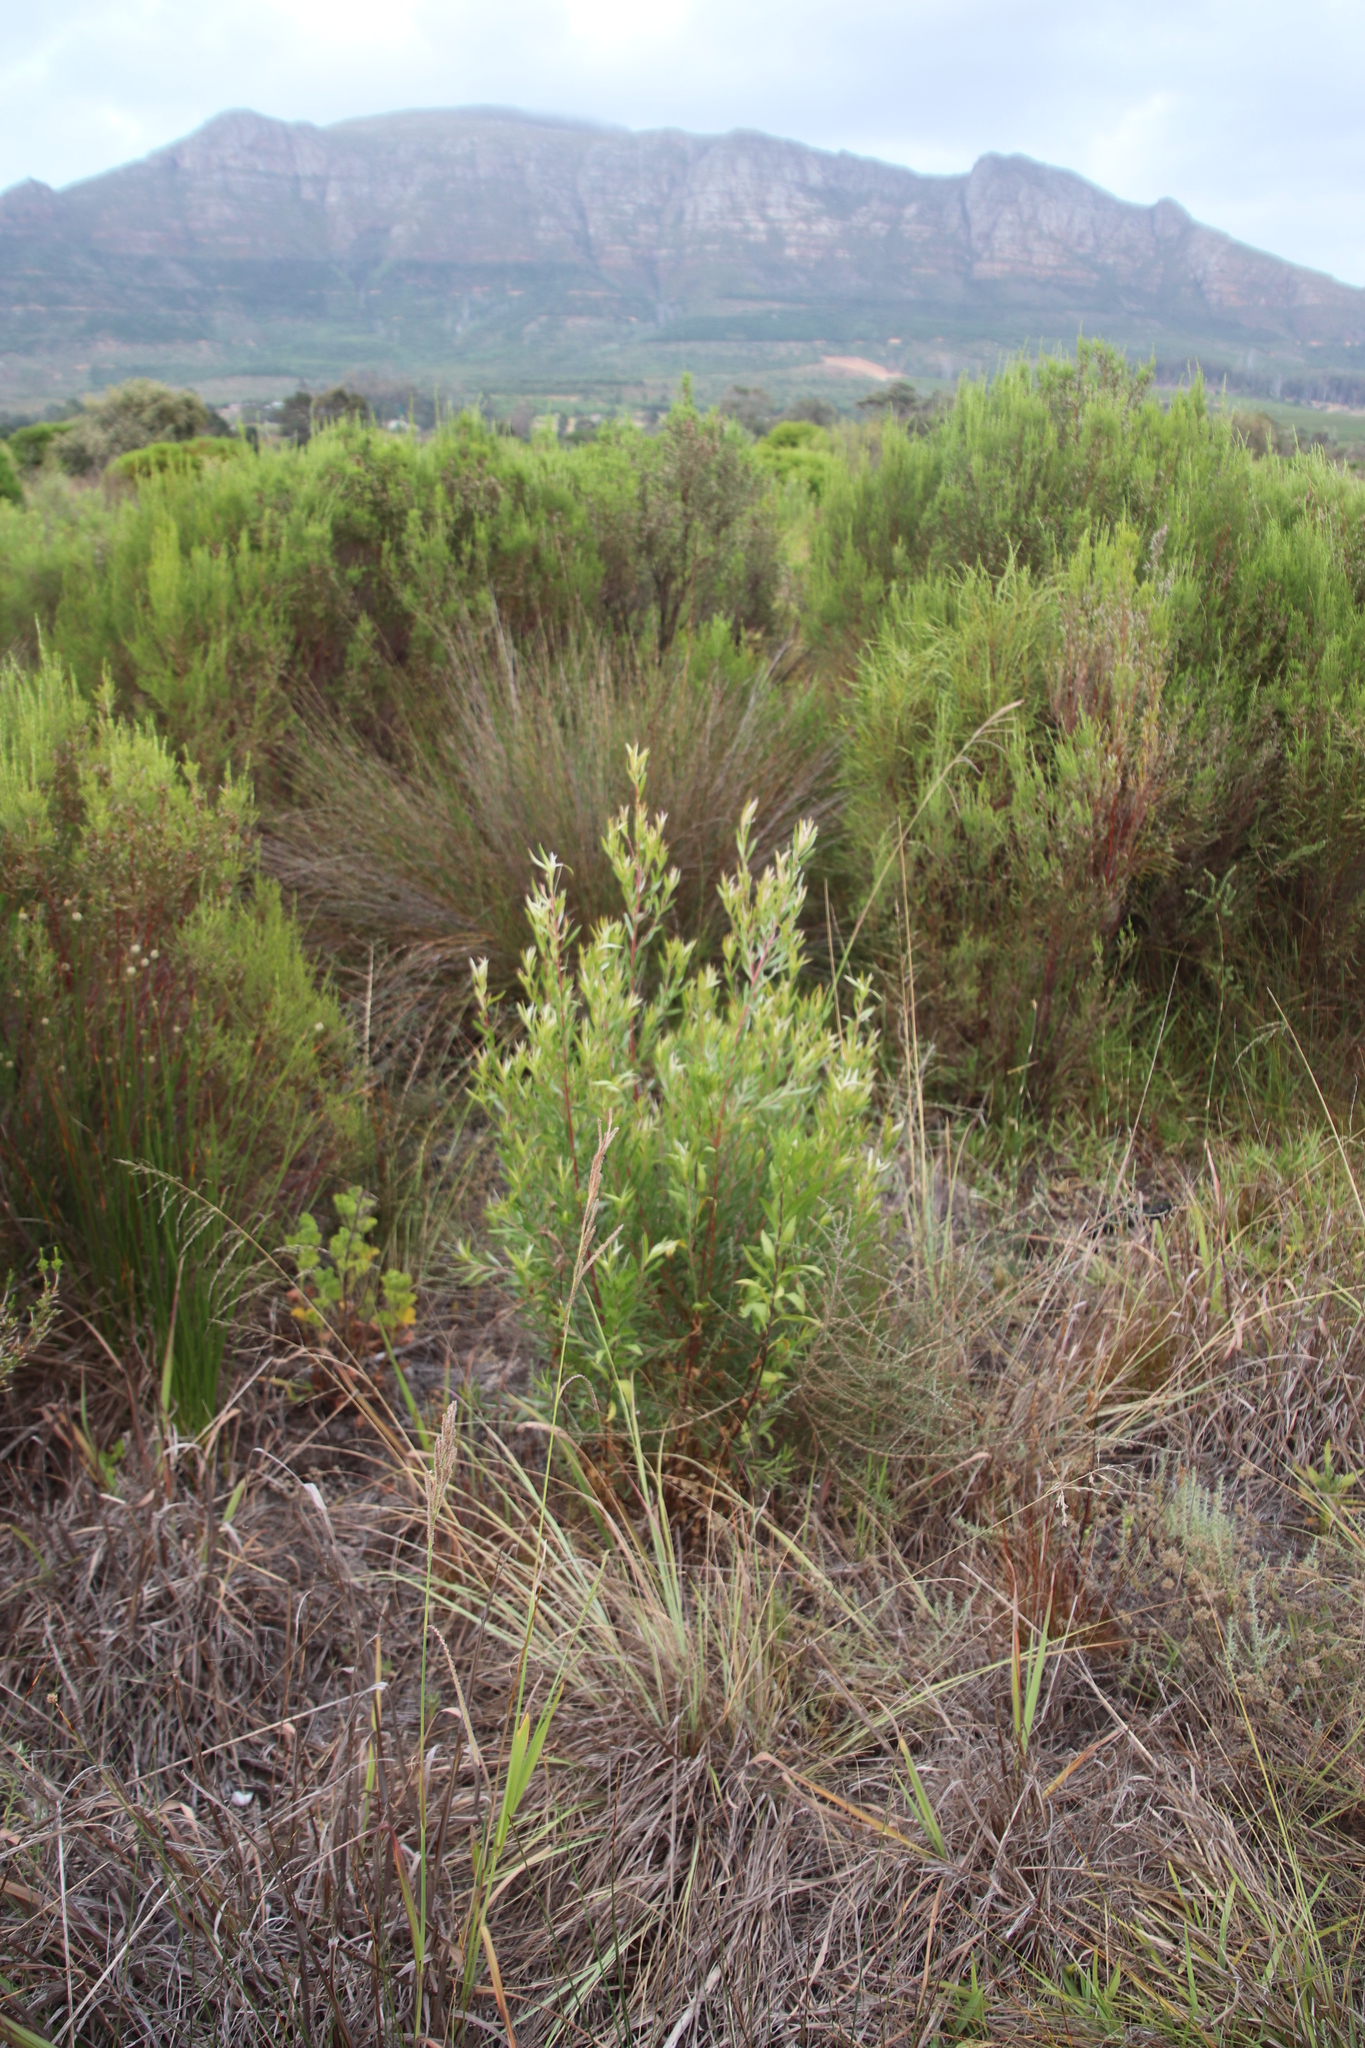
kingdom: Plantae
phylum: Tracheophyta
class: Magnoliopsida
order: Proteales
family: Proteaceae
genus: Leucadendron
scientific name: Leucadendron floridum
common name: Flats conebush
